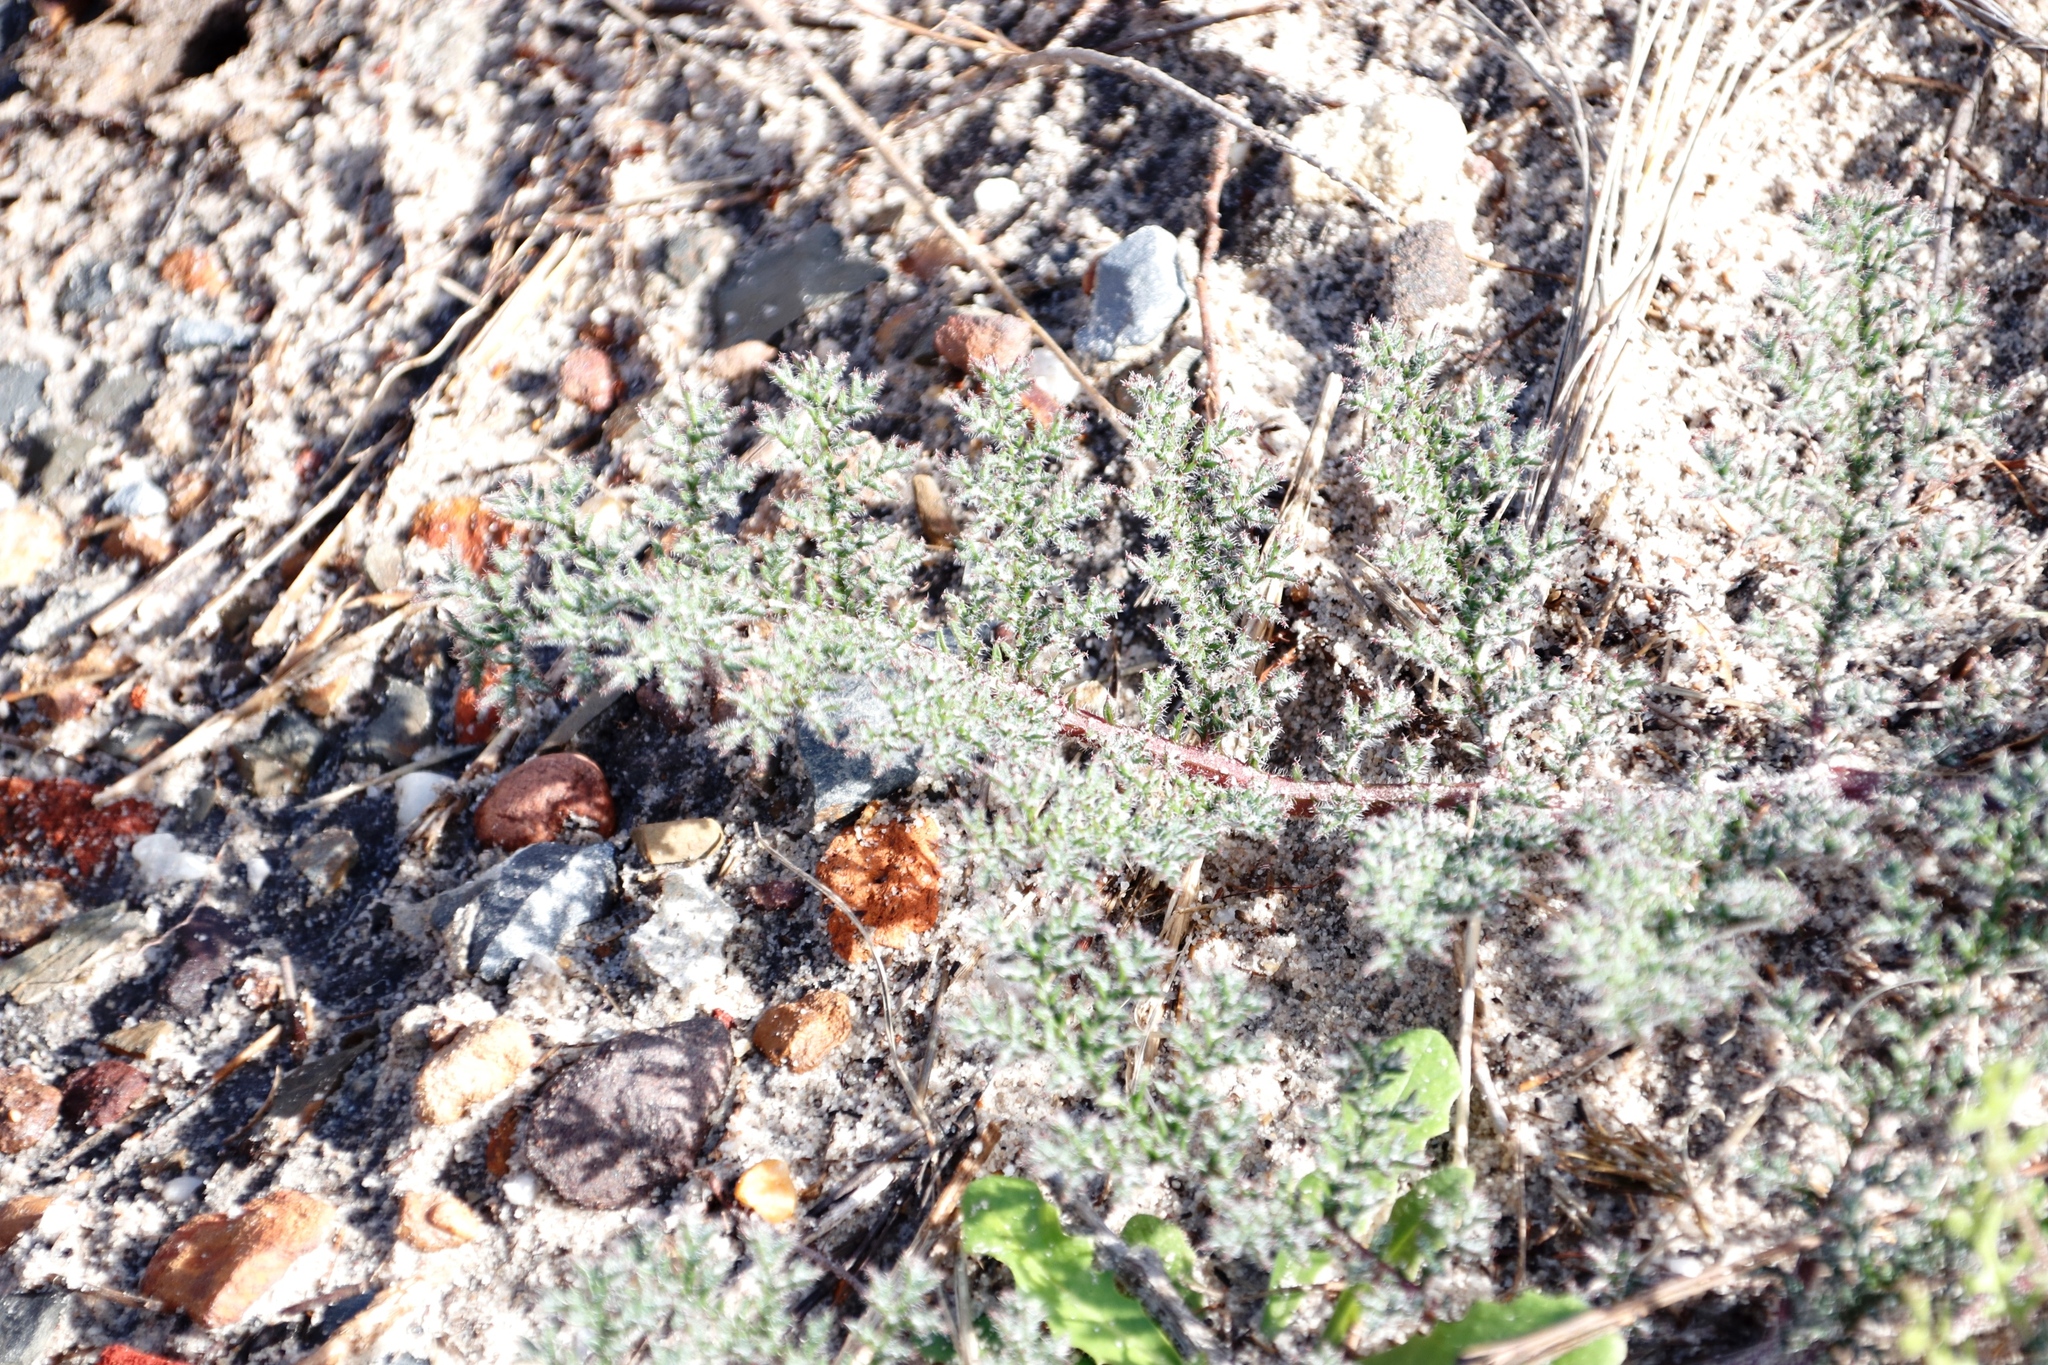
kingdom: Plantae
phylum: Tracheophyta
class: Magnoliopsida
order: Geraniales
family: Geraniaceae
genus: Pelargonium
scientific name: Pelargonium triste
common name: Night-scent pelargonium
